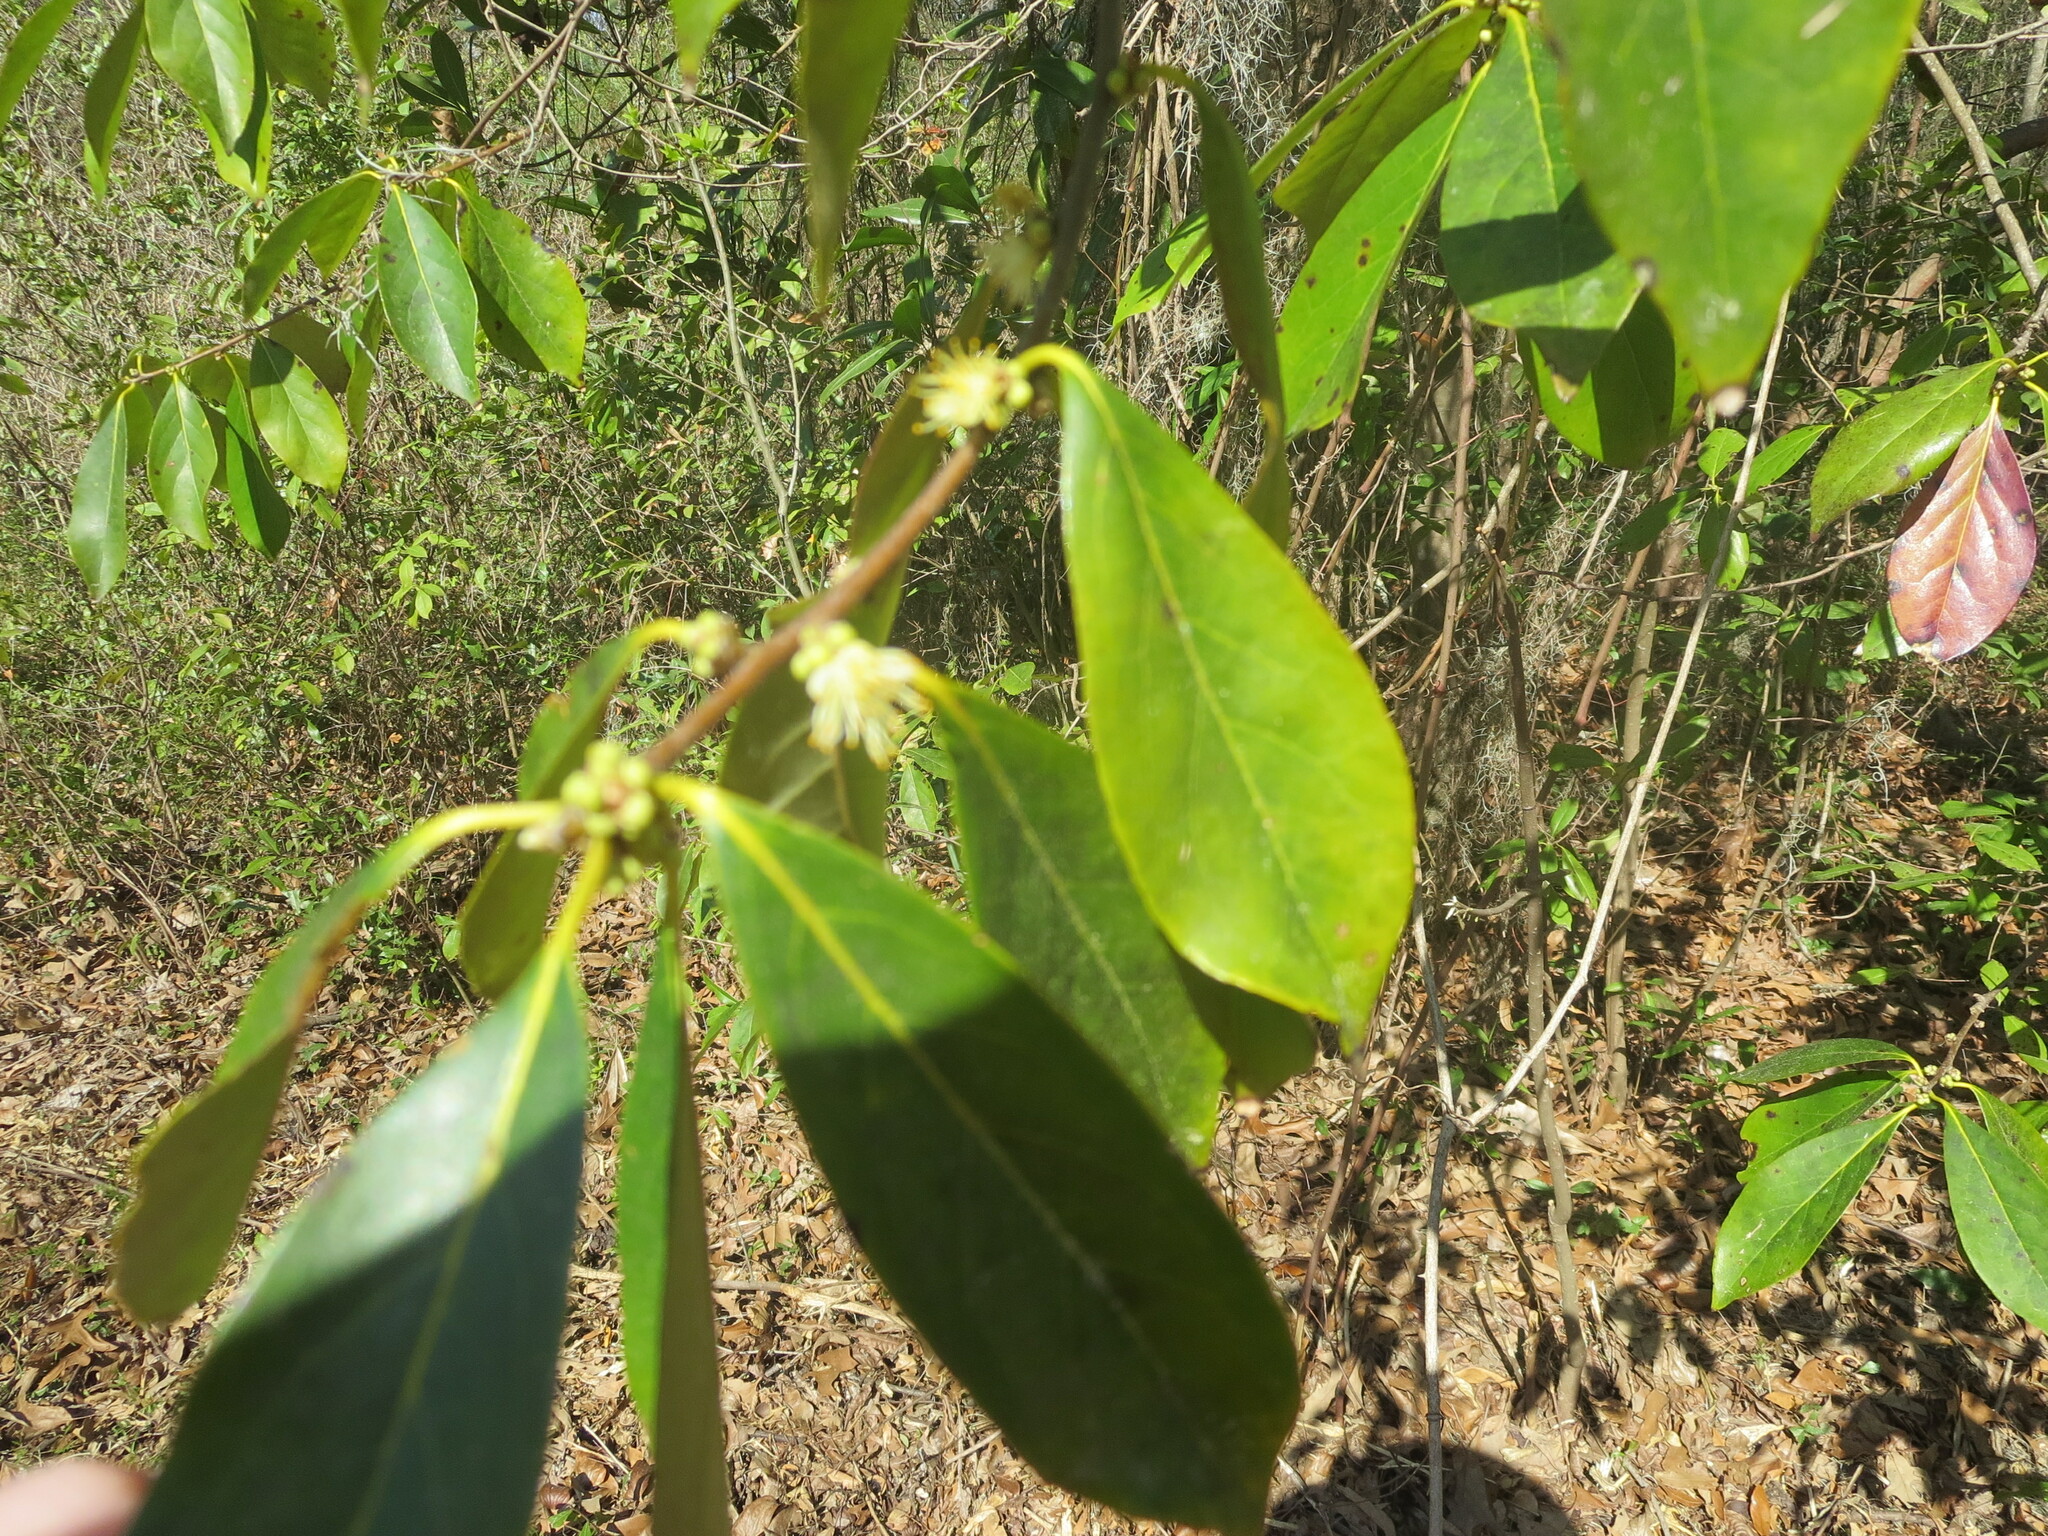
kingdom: Plantae
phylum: Tracheophyta
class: Magnoliopsida
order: Ericales
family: Symplocaceae
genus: Symplocos
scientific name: Symplocos tinctoria
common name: Horse-sugar
